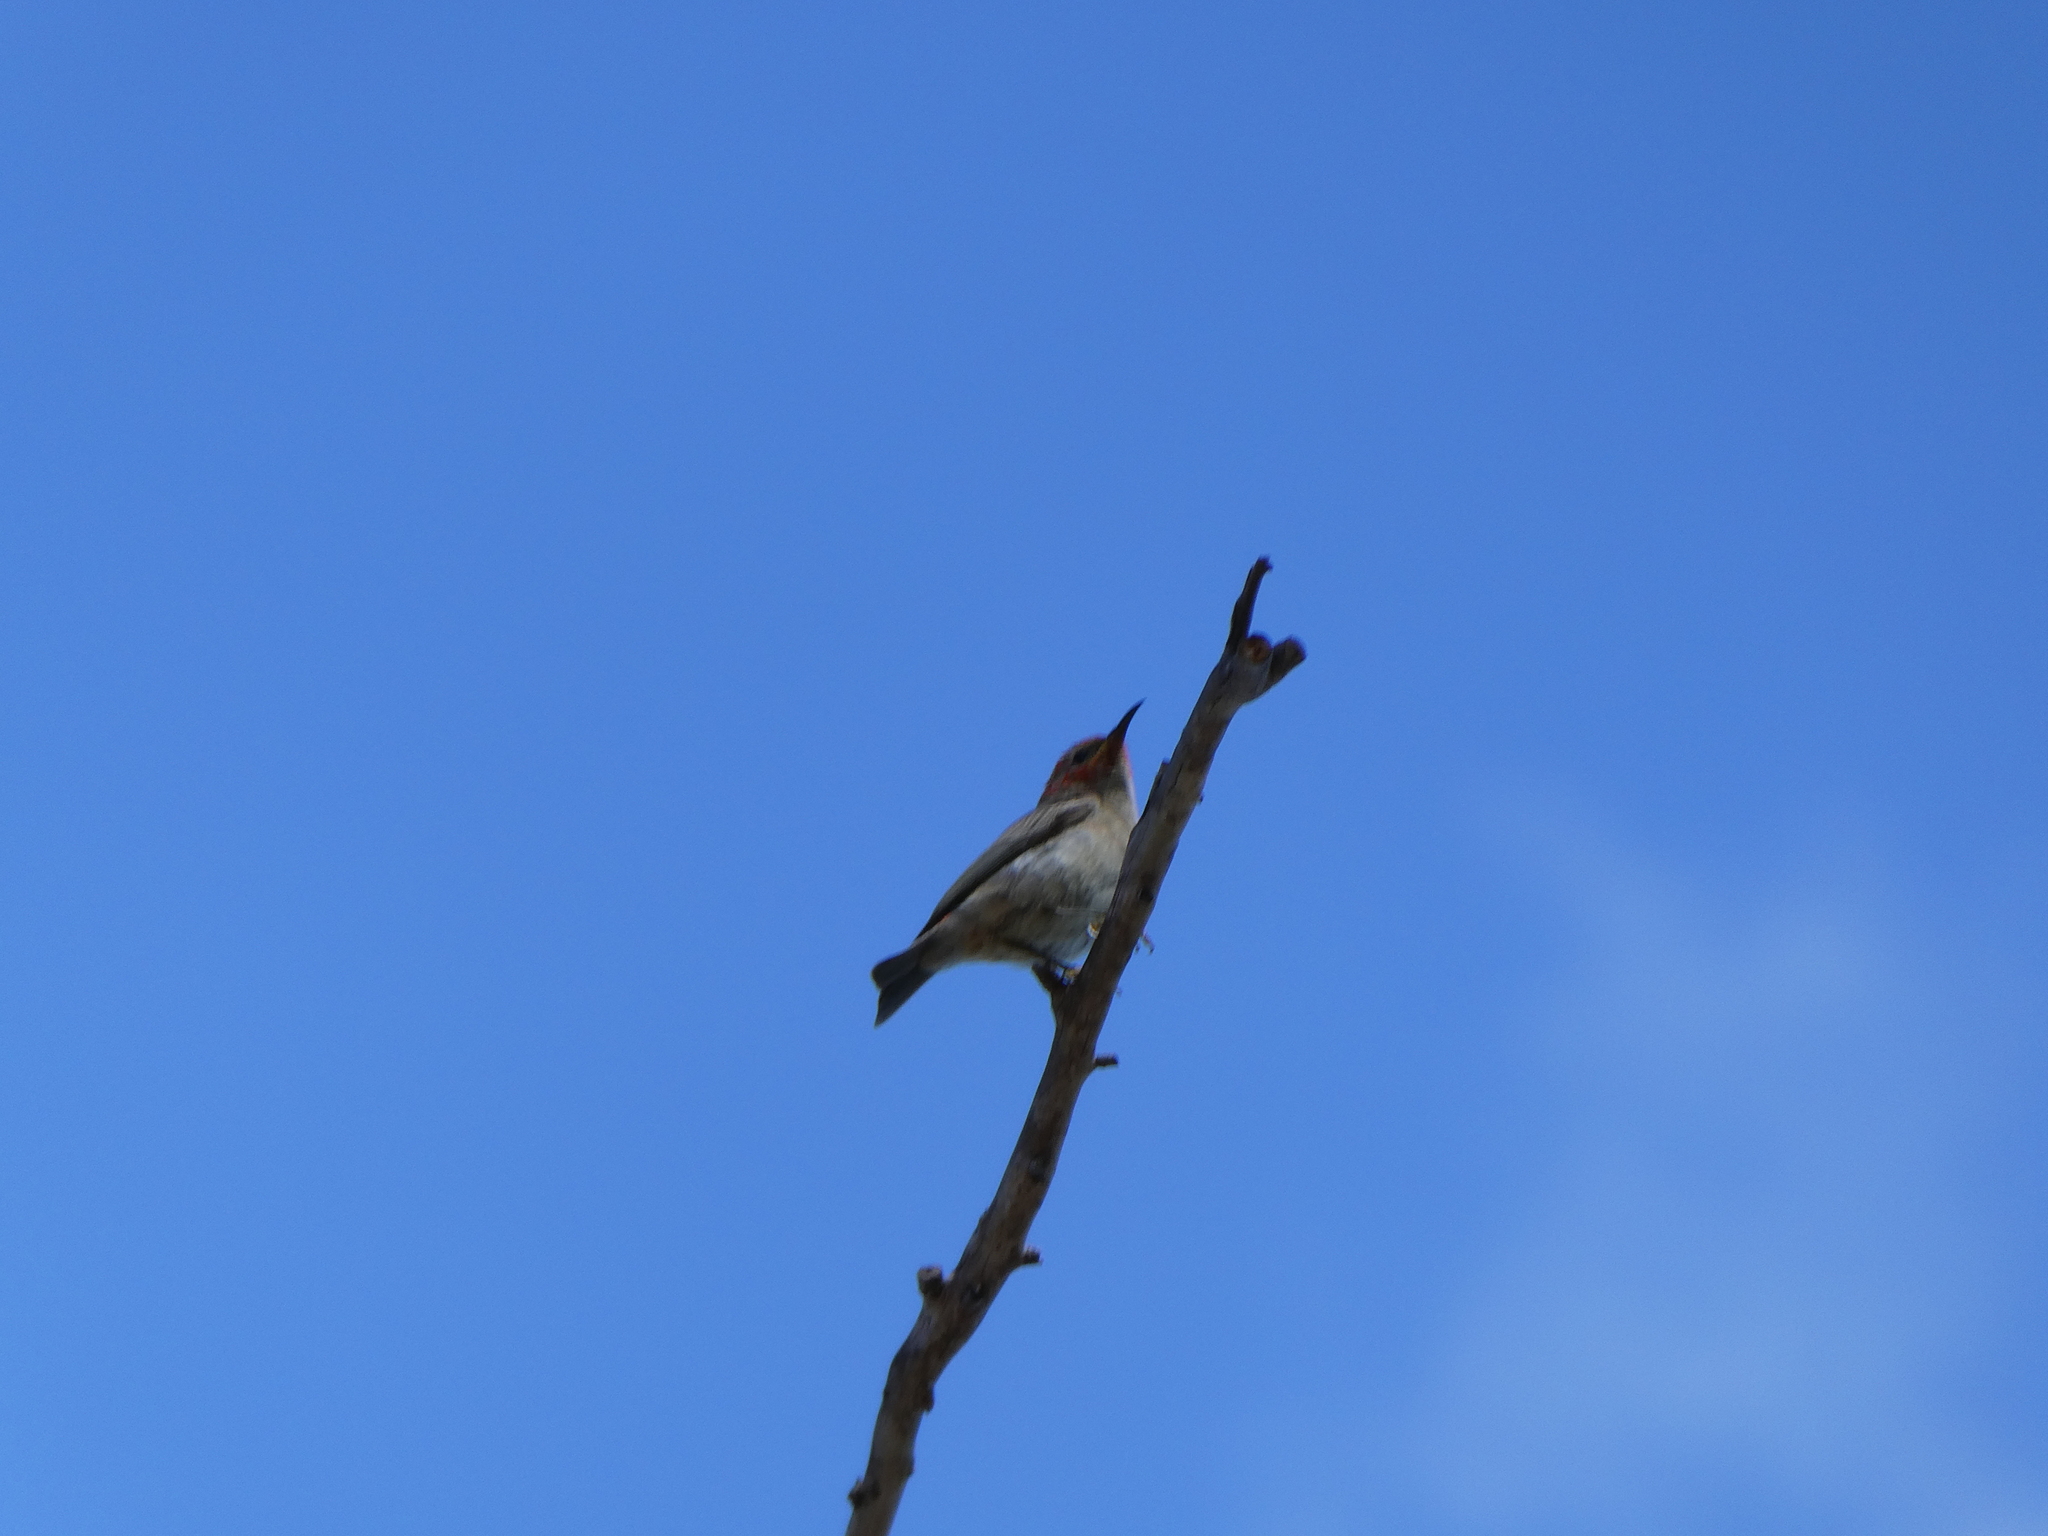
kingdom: Animalia
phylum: Chordata
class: Aves
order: Passeriformes
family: Meliphagidae
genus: Myzomela
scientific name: Myzomela sanguinolenta
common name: Scarlet myzomela
